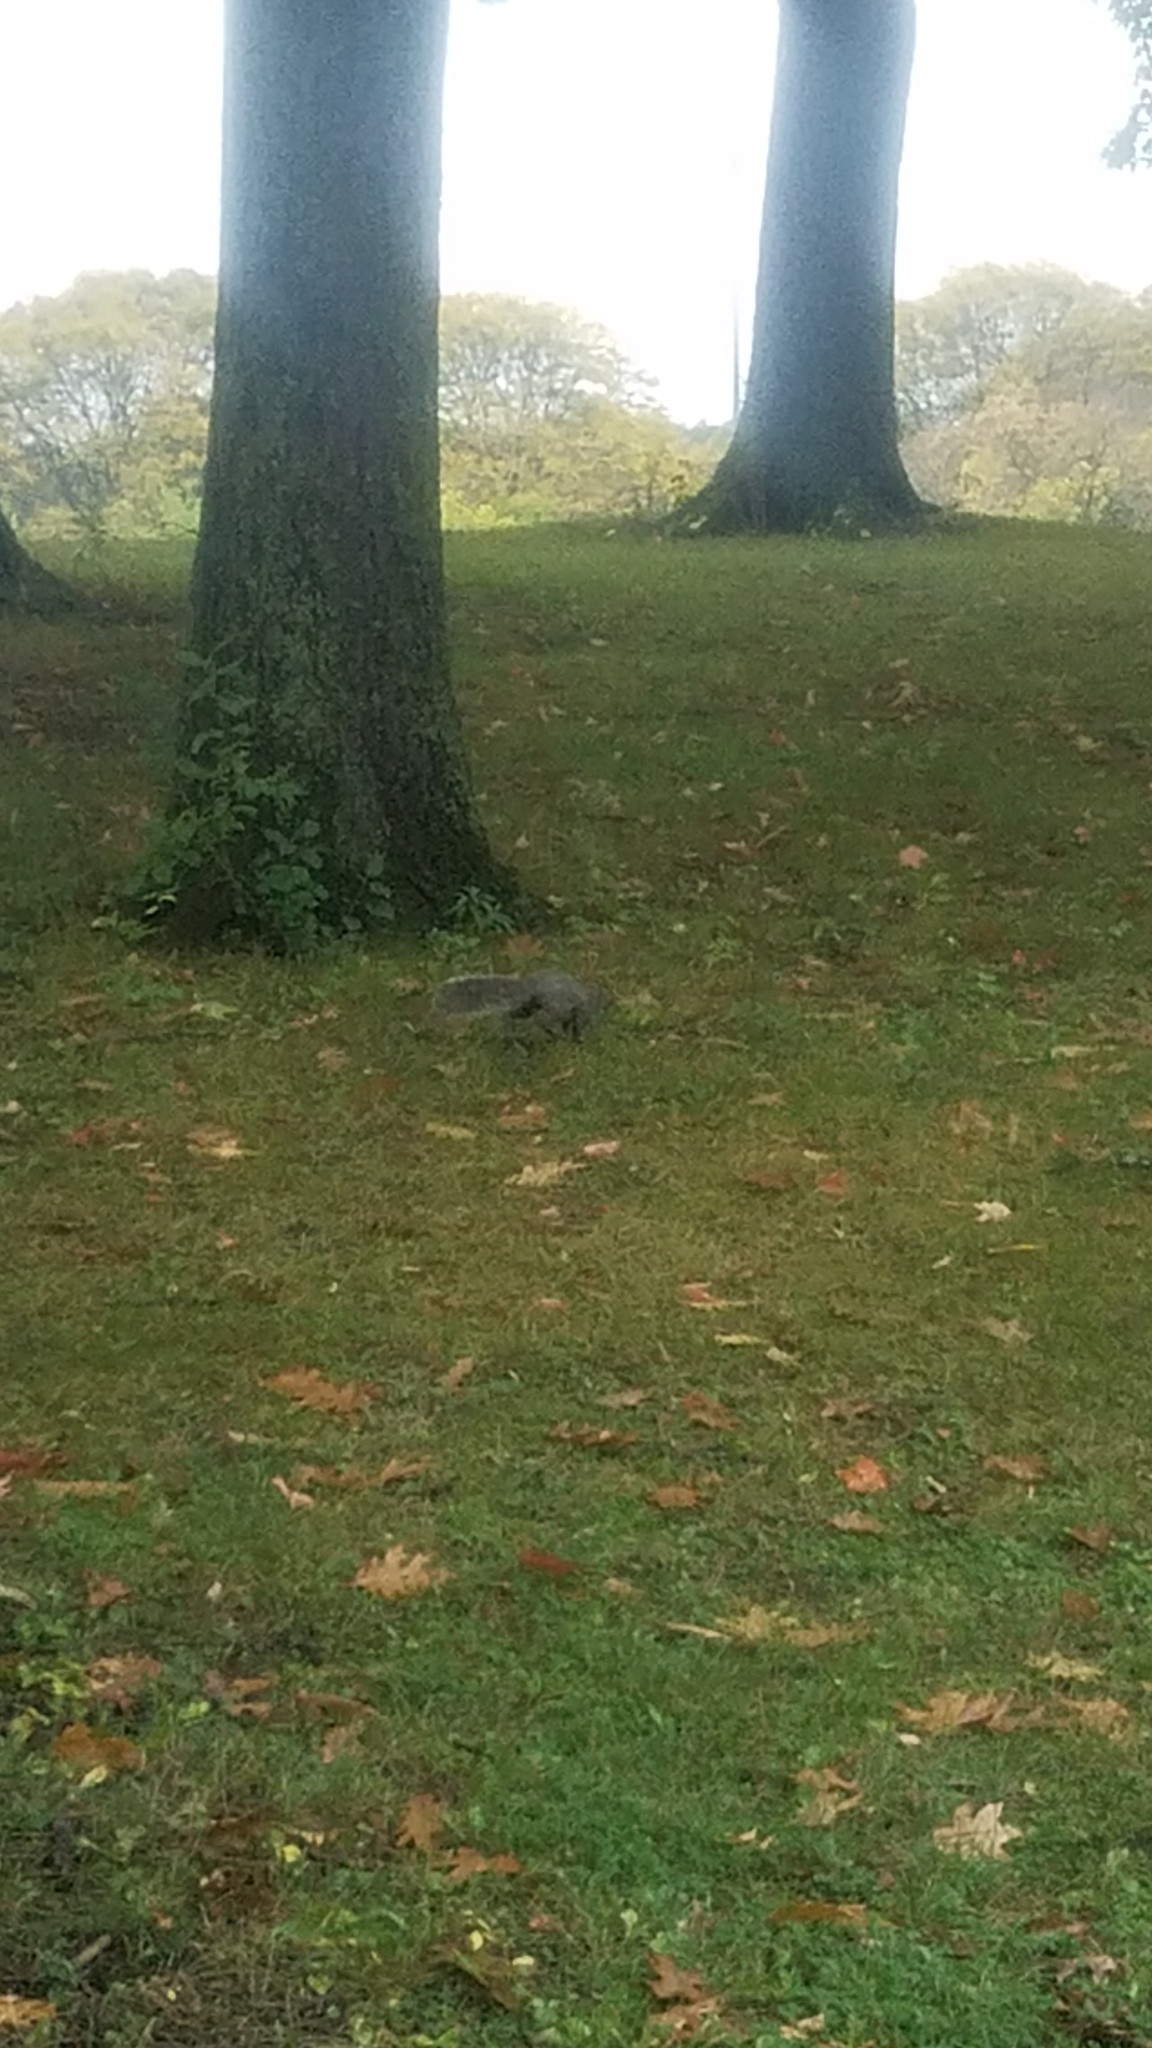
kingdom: Animalia
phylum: Chordata
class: Mammalia
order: Rodentia
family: Sciuridae
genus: Sciurus
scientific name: Sciurus carolinensis
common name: Eastern gray squirrel
